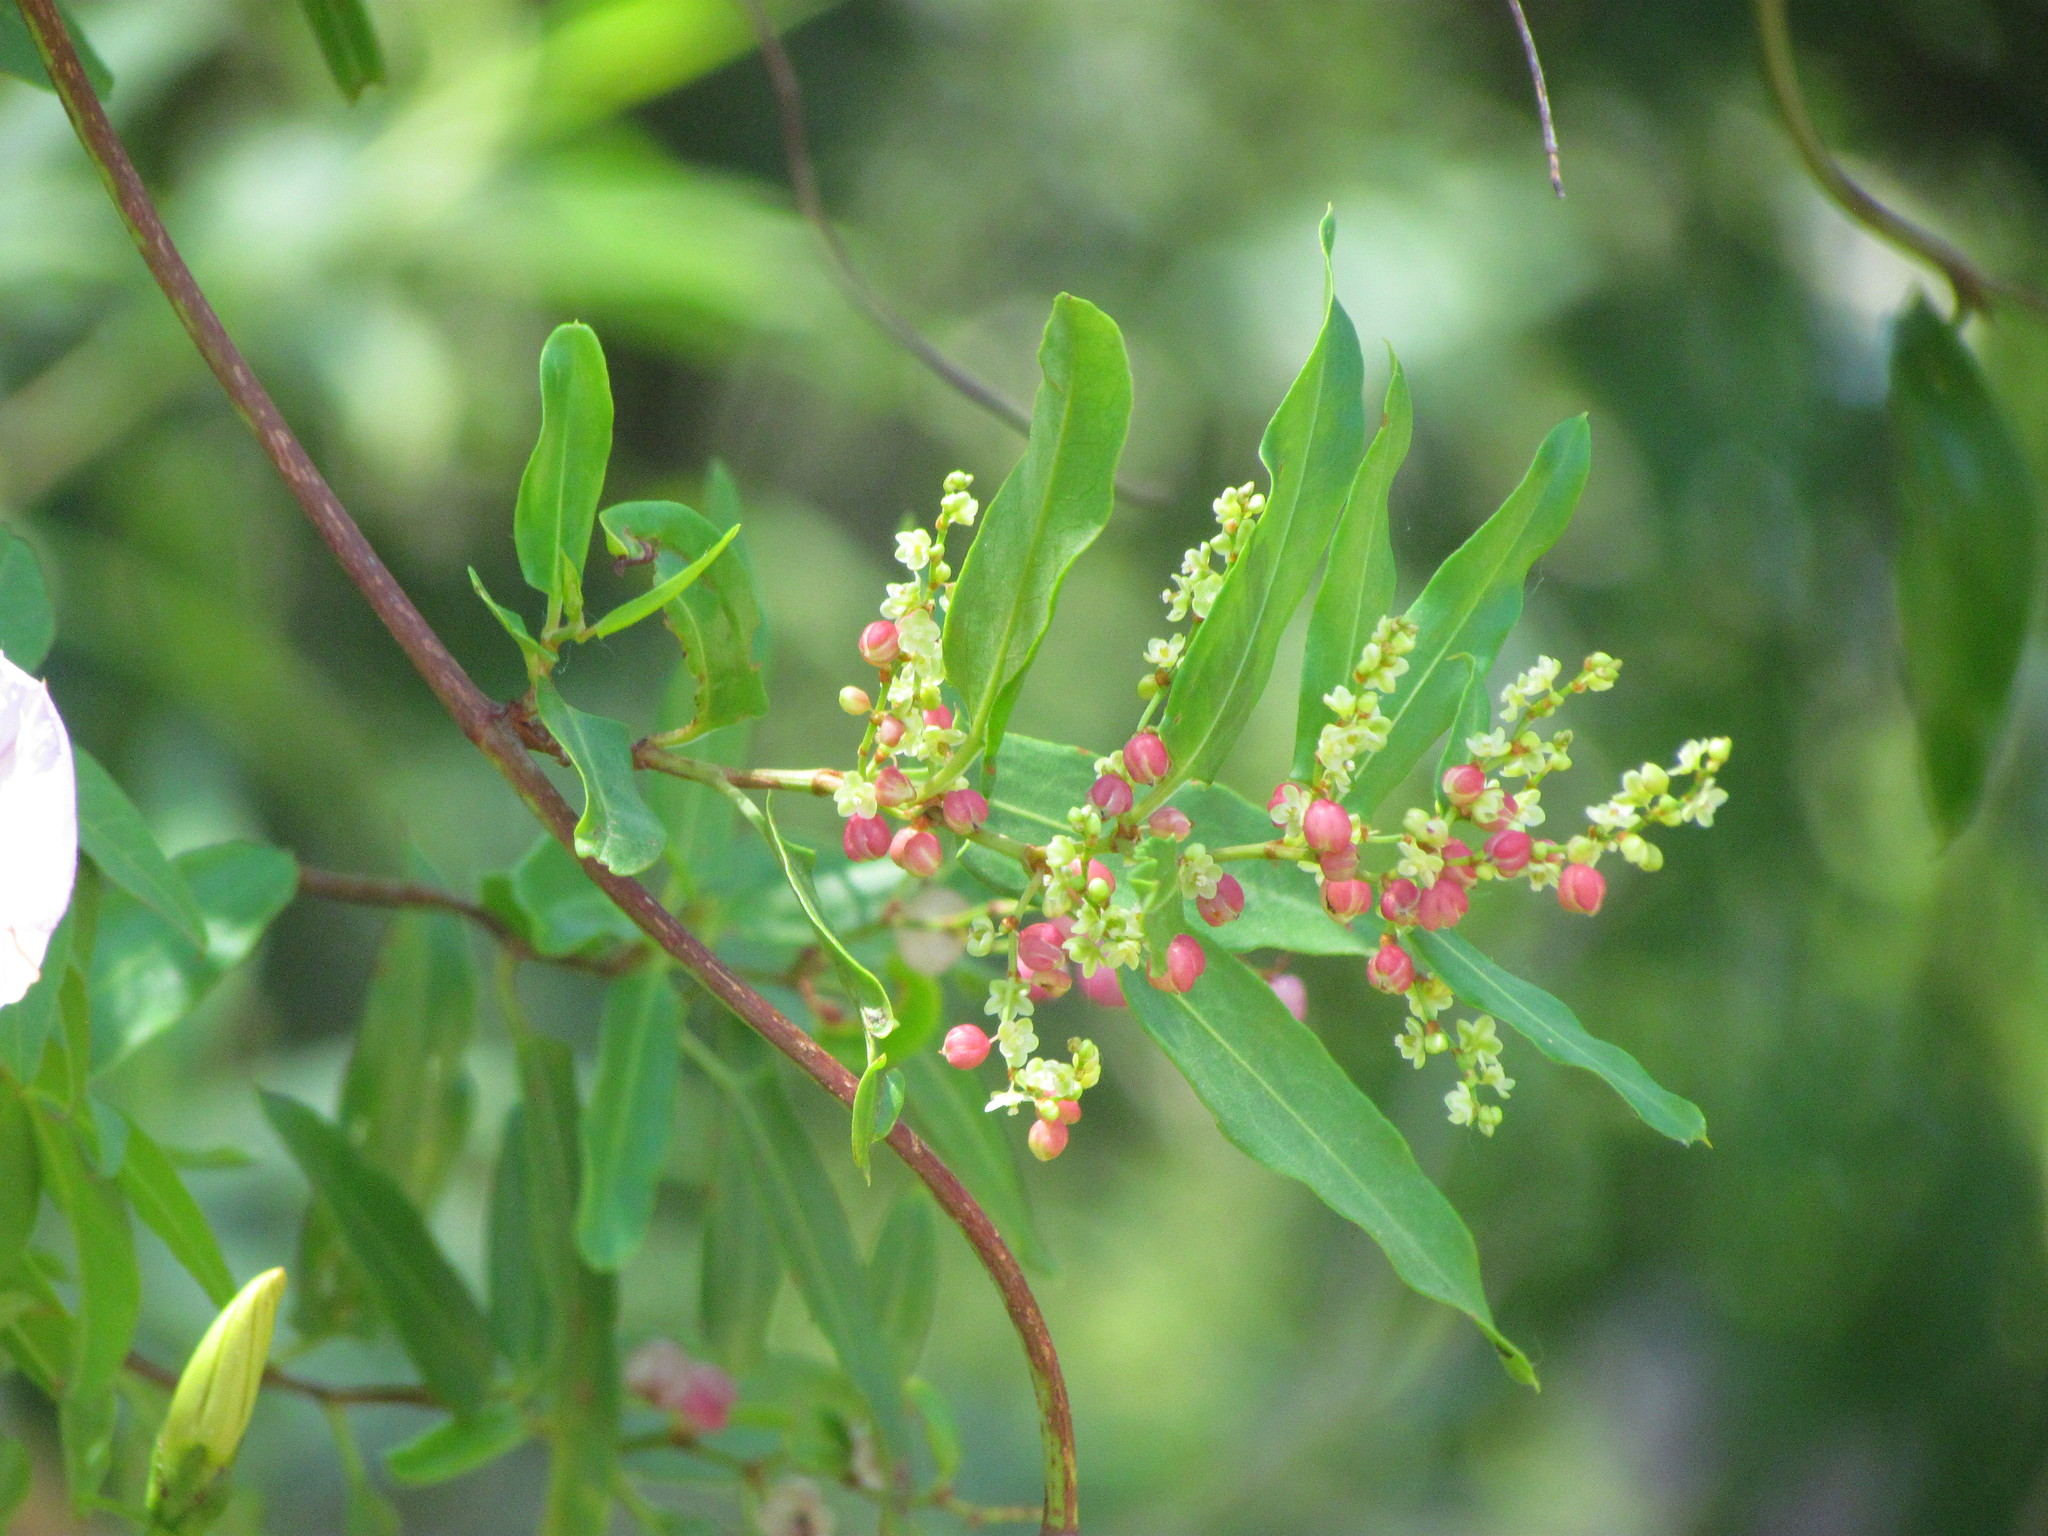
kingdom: Plantae
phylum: Tracheophyta
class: Magnoliopsida
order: Caryophyllales
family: Polygonaceae
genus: Muehlenbeckia
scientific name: Muehlenbeckia sagittifolia
